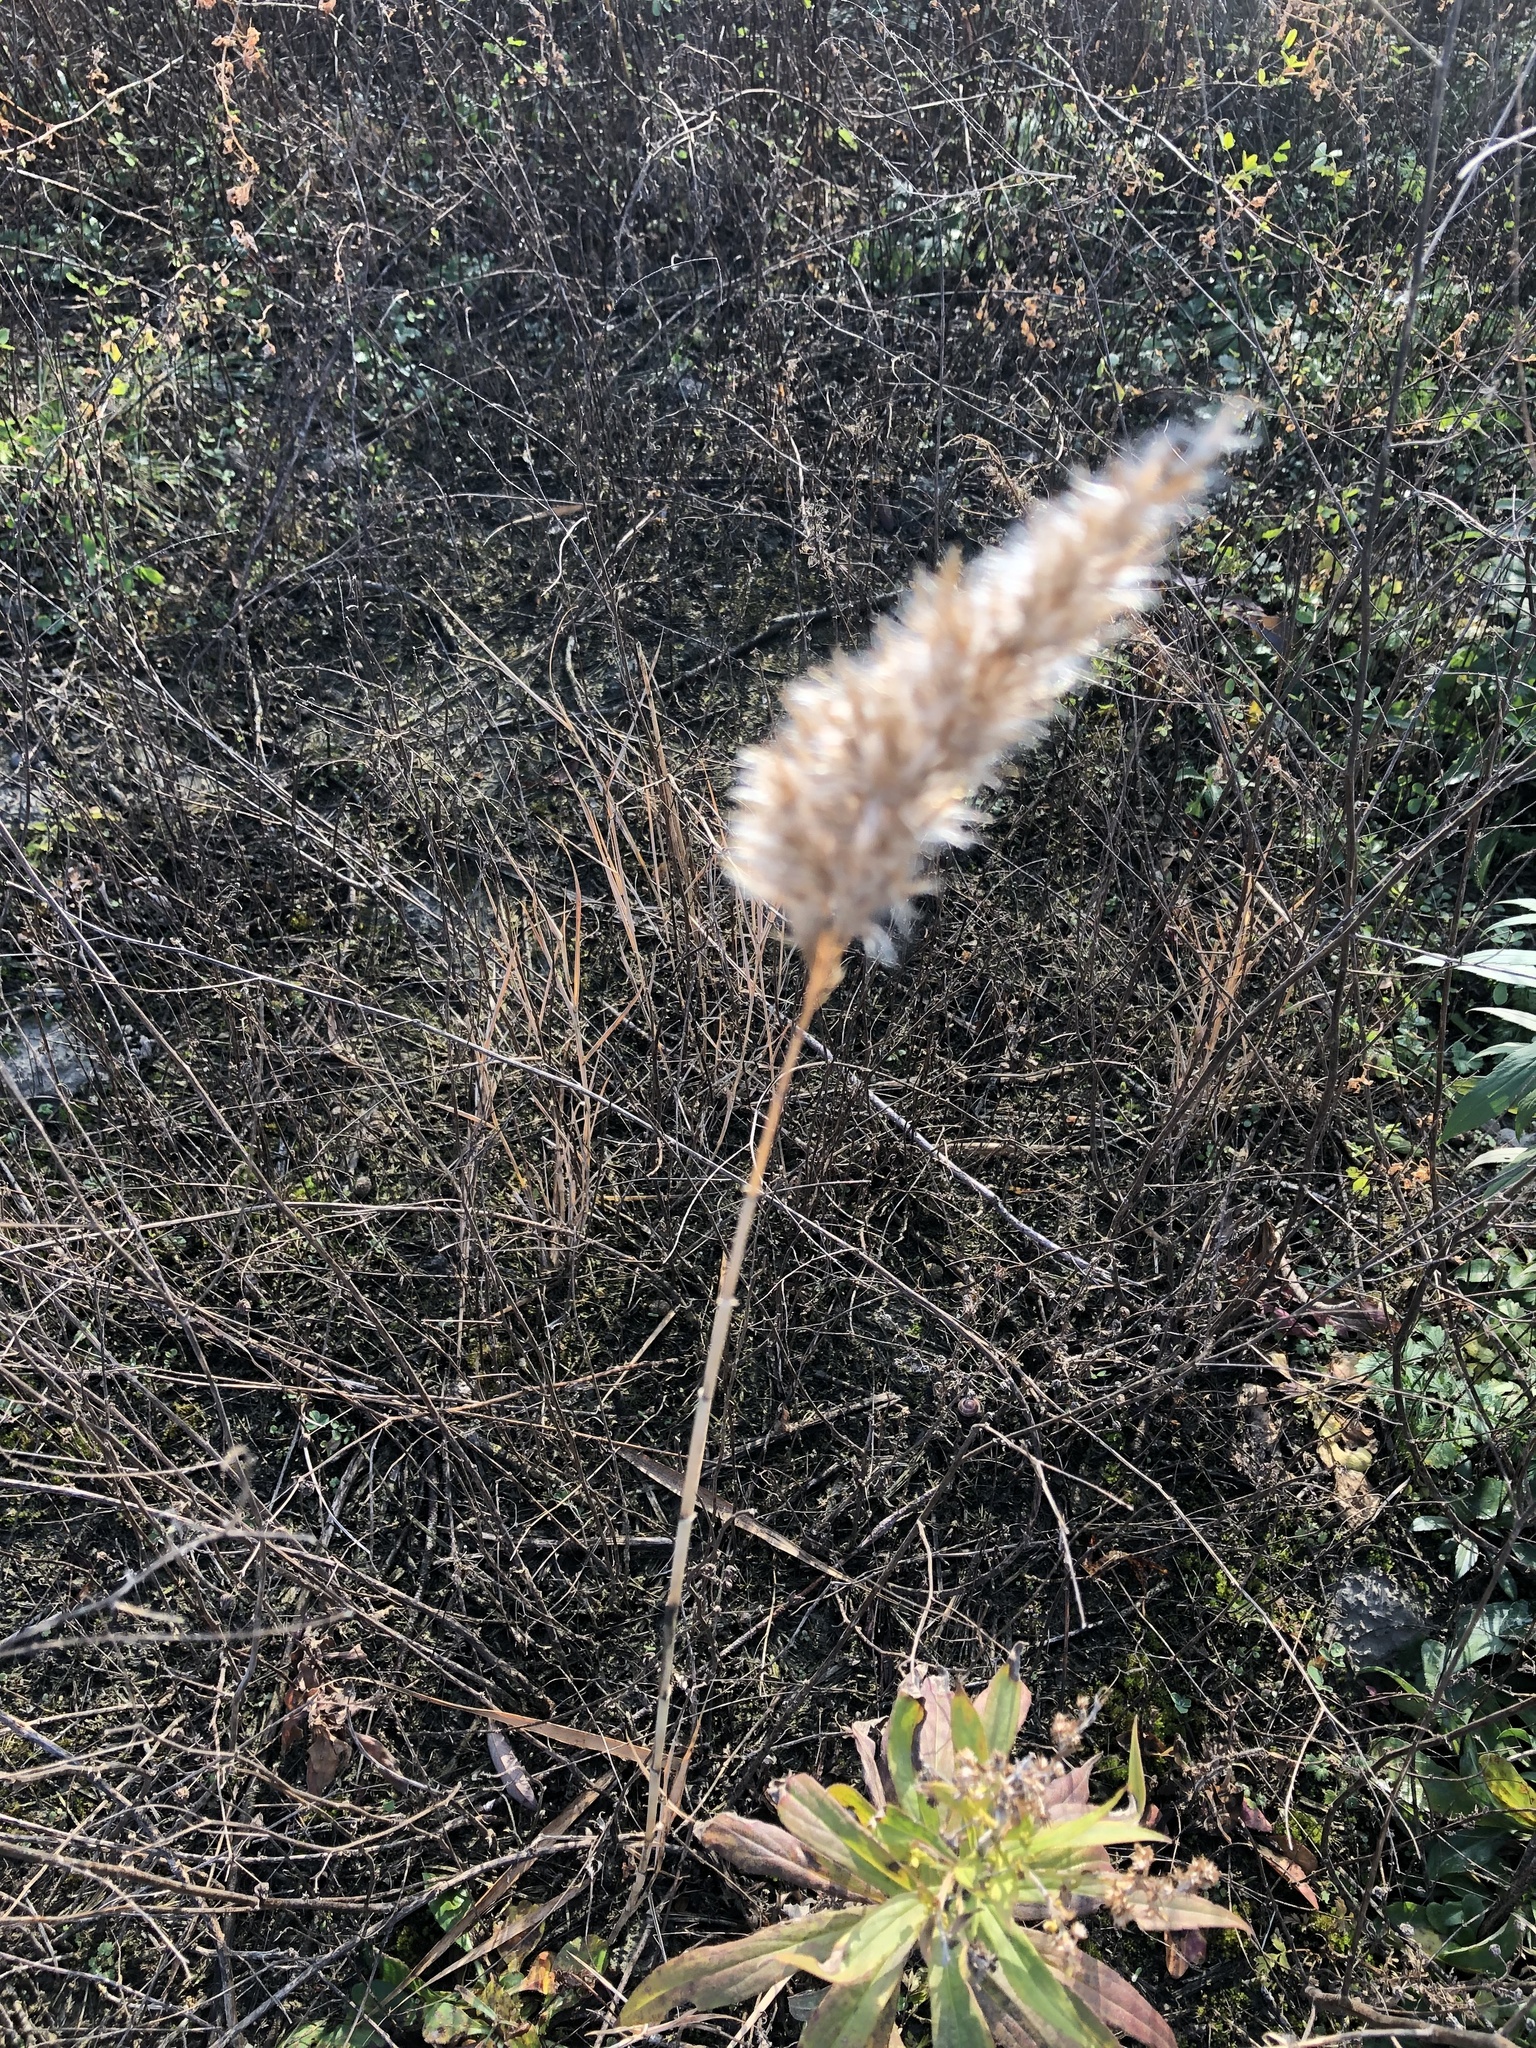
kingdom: Plantae
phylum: Tracheophyta
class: Liliopsida
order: Poales
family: Poaceae
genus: Phragmites
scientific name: Phragmites australis
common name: Common reed
